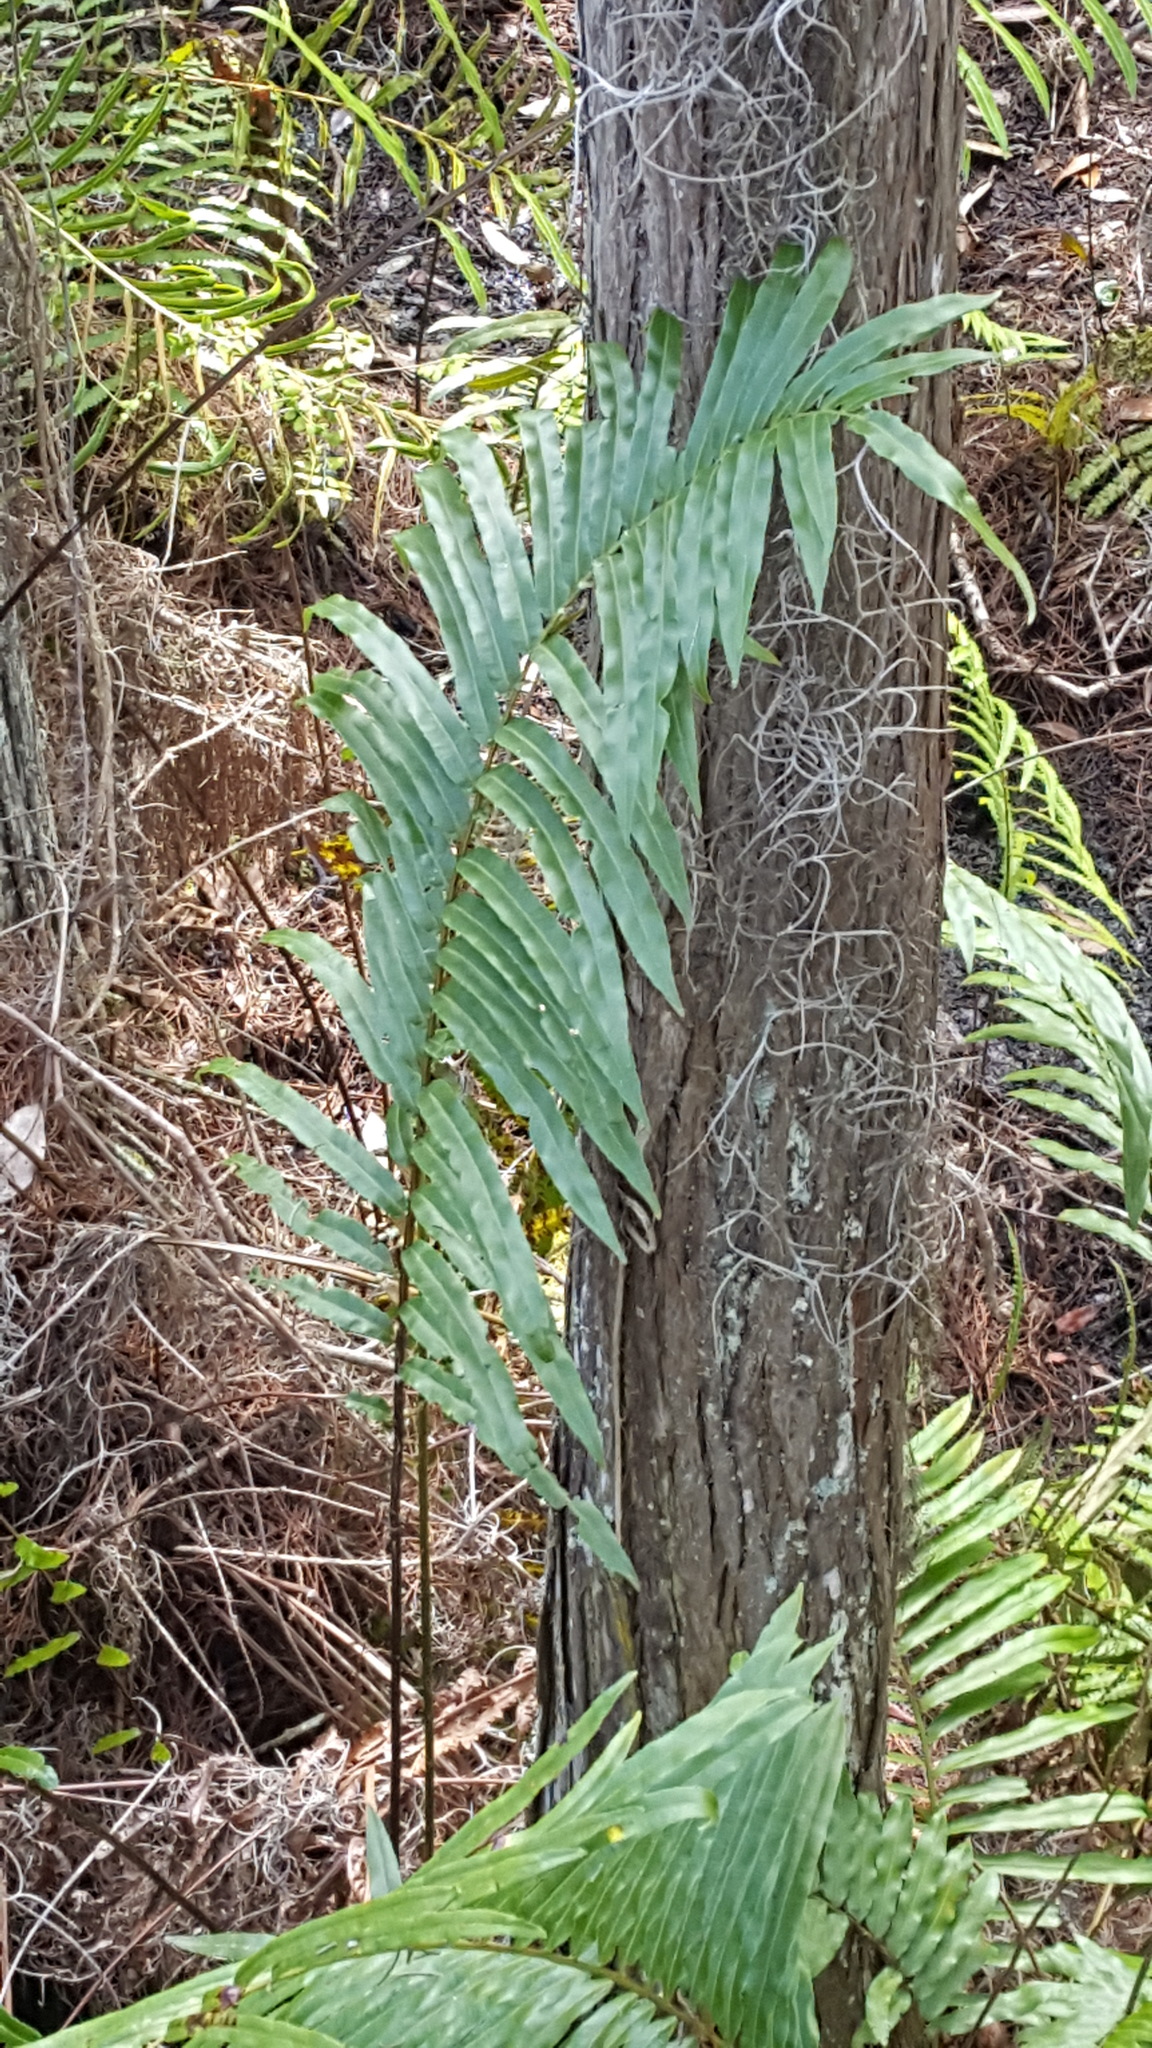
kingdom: Plantae
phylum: Tracheophyta
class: Polypodiopsida
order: Polypodiales
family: Blechnaceae
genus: Telmatoblechnum
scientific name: Telmatoblechnum serrulatum
